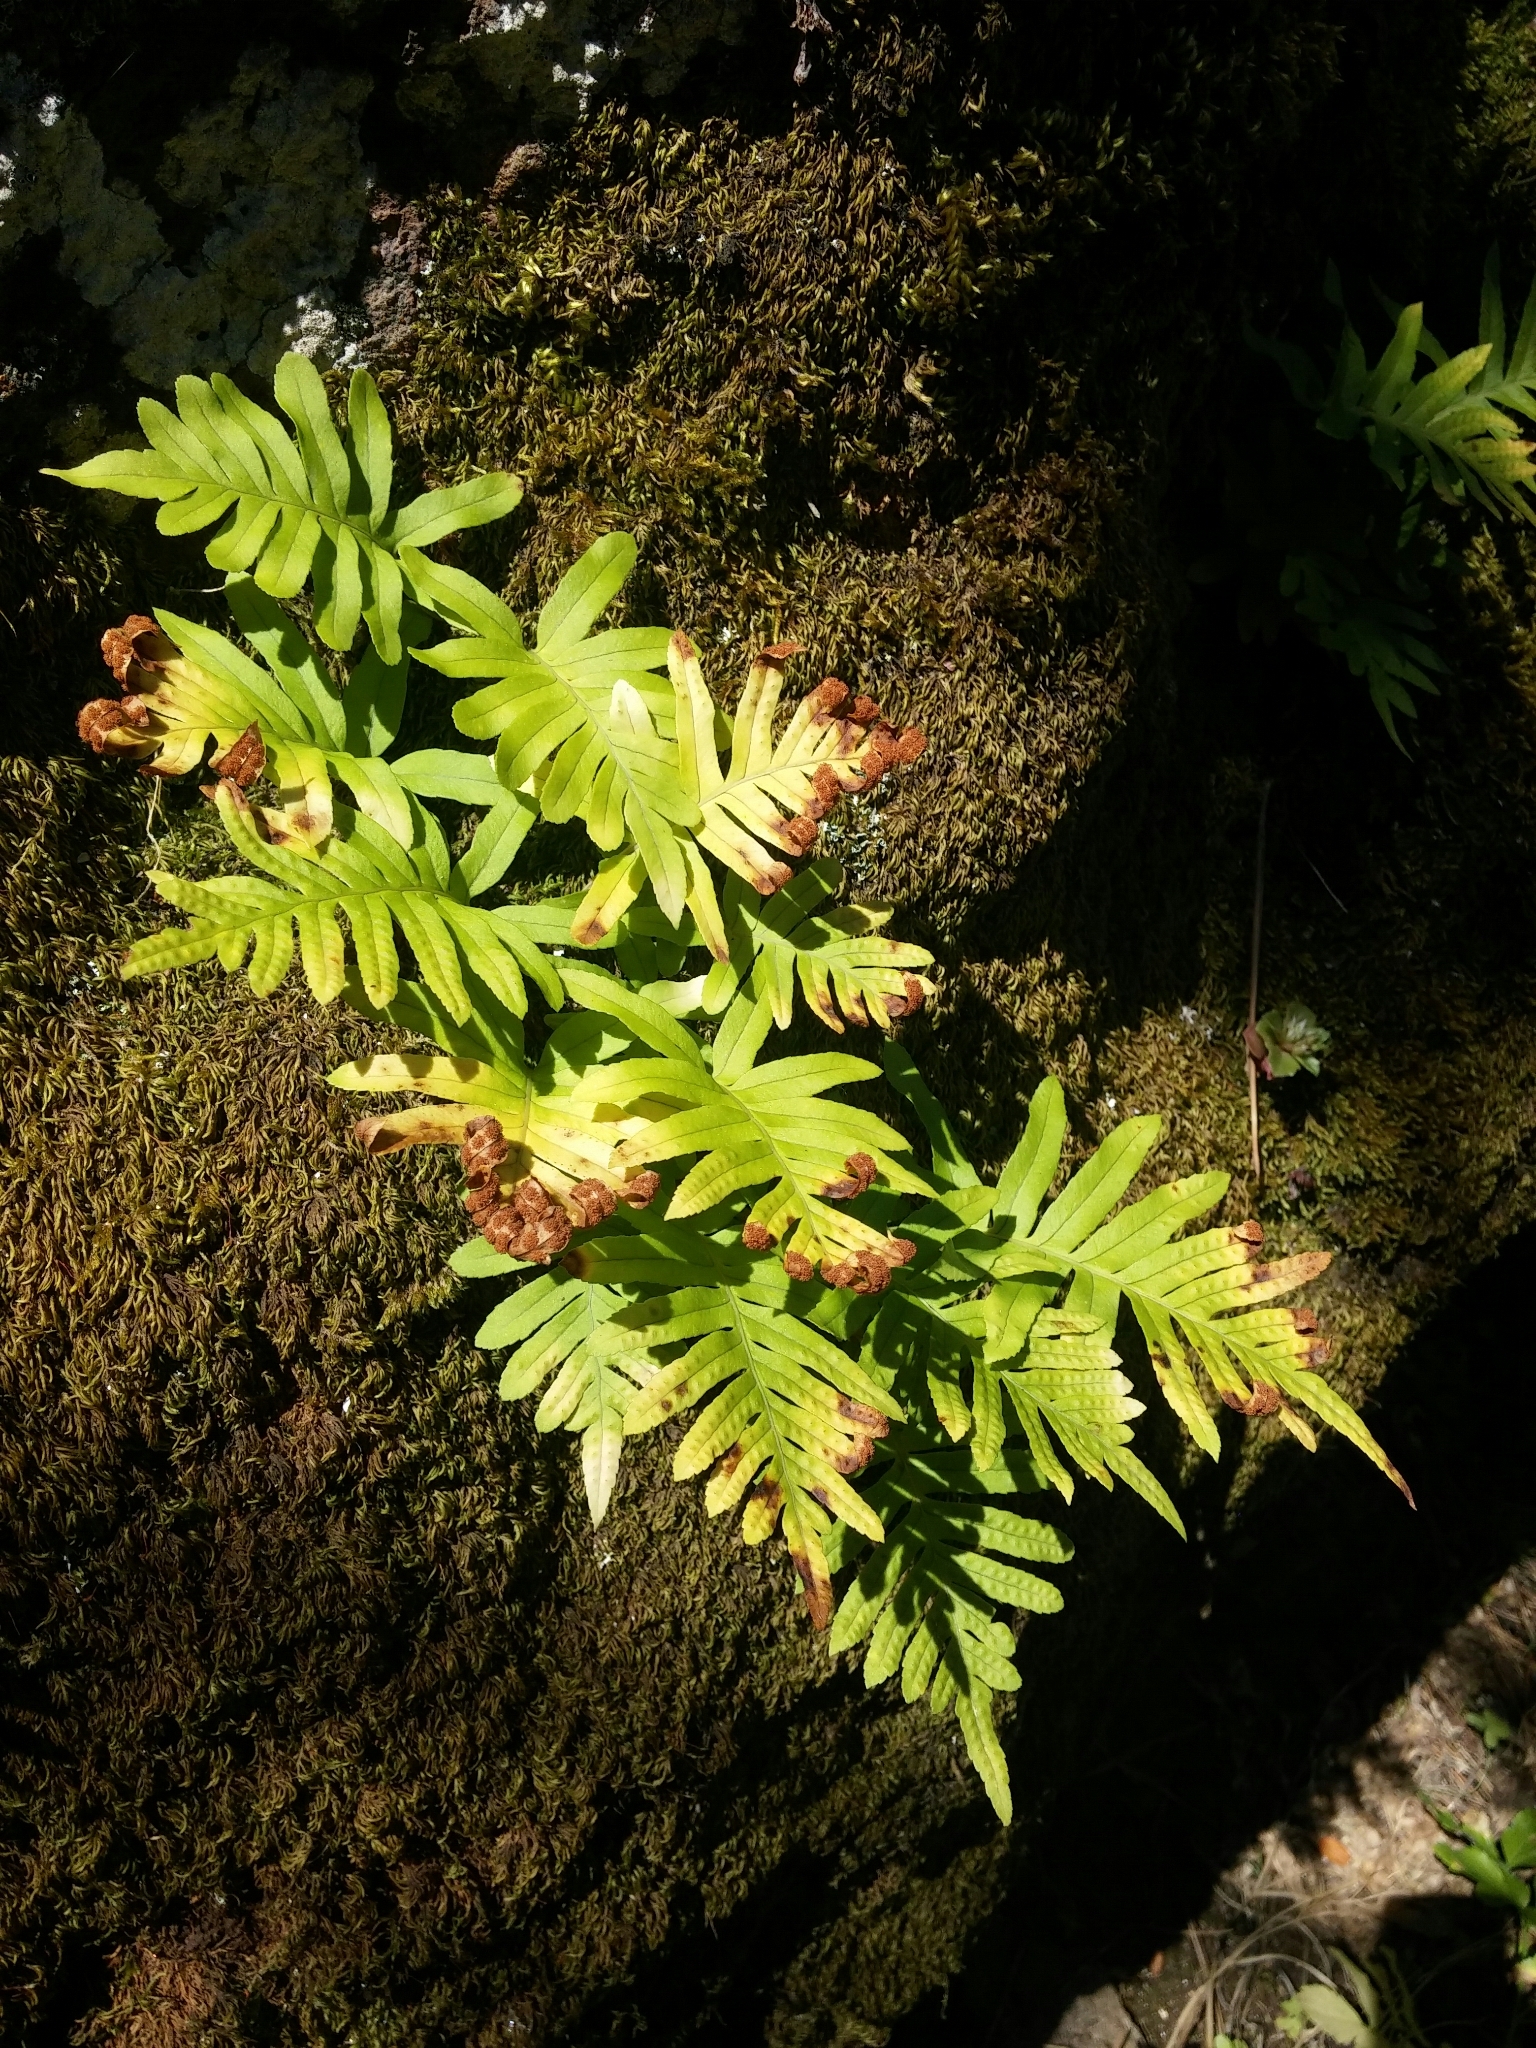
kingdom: Plantae
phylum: Tracheophyta
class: Polypodiopsida
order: Polypodiales
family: Polypodiaceae
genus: Polypodium
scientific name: Polypodium cambricum
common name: Southern polypody
